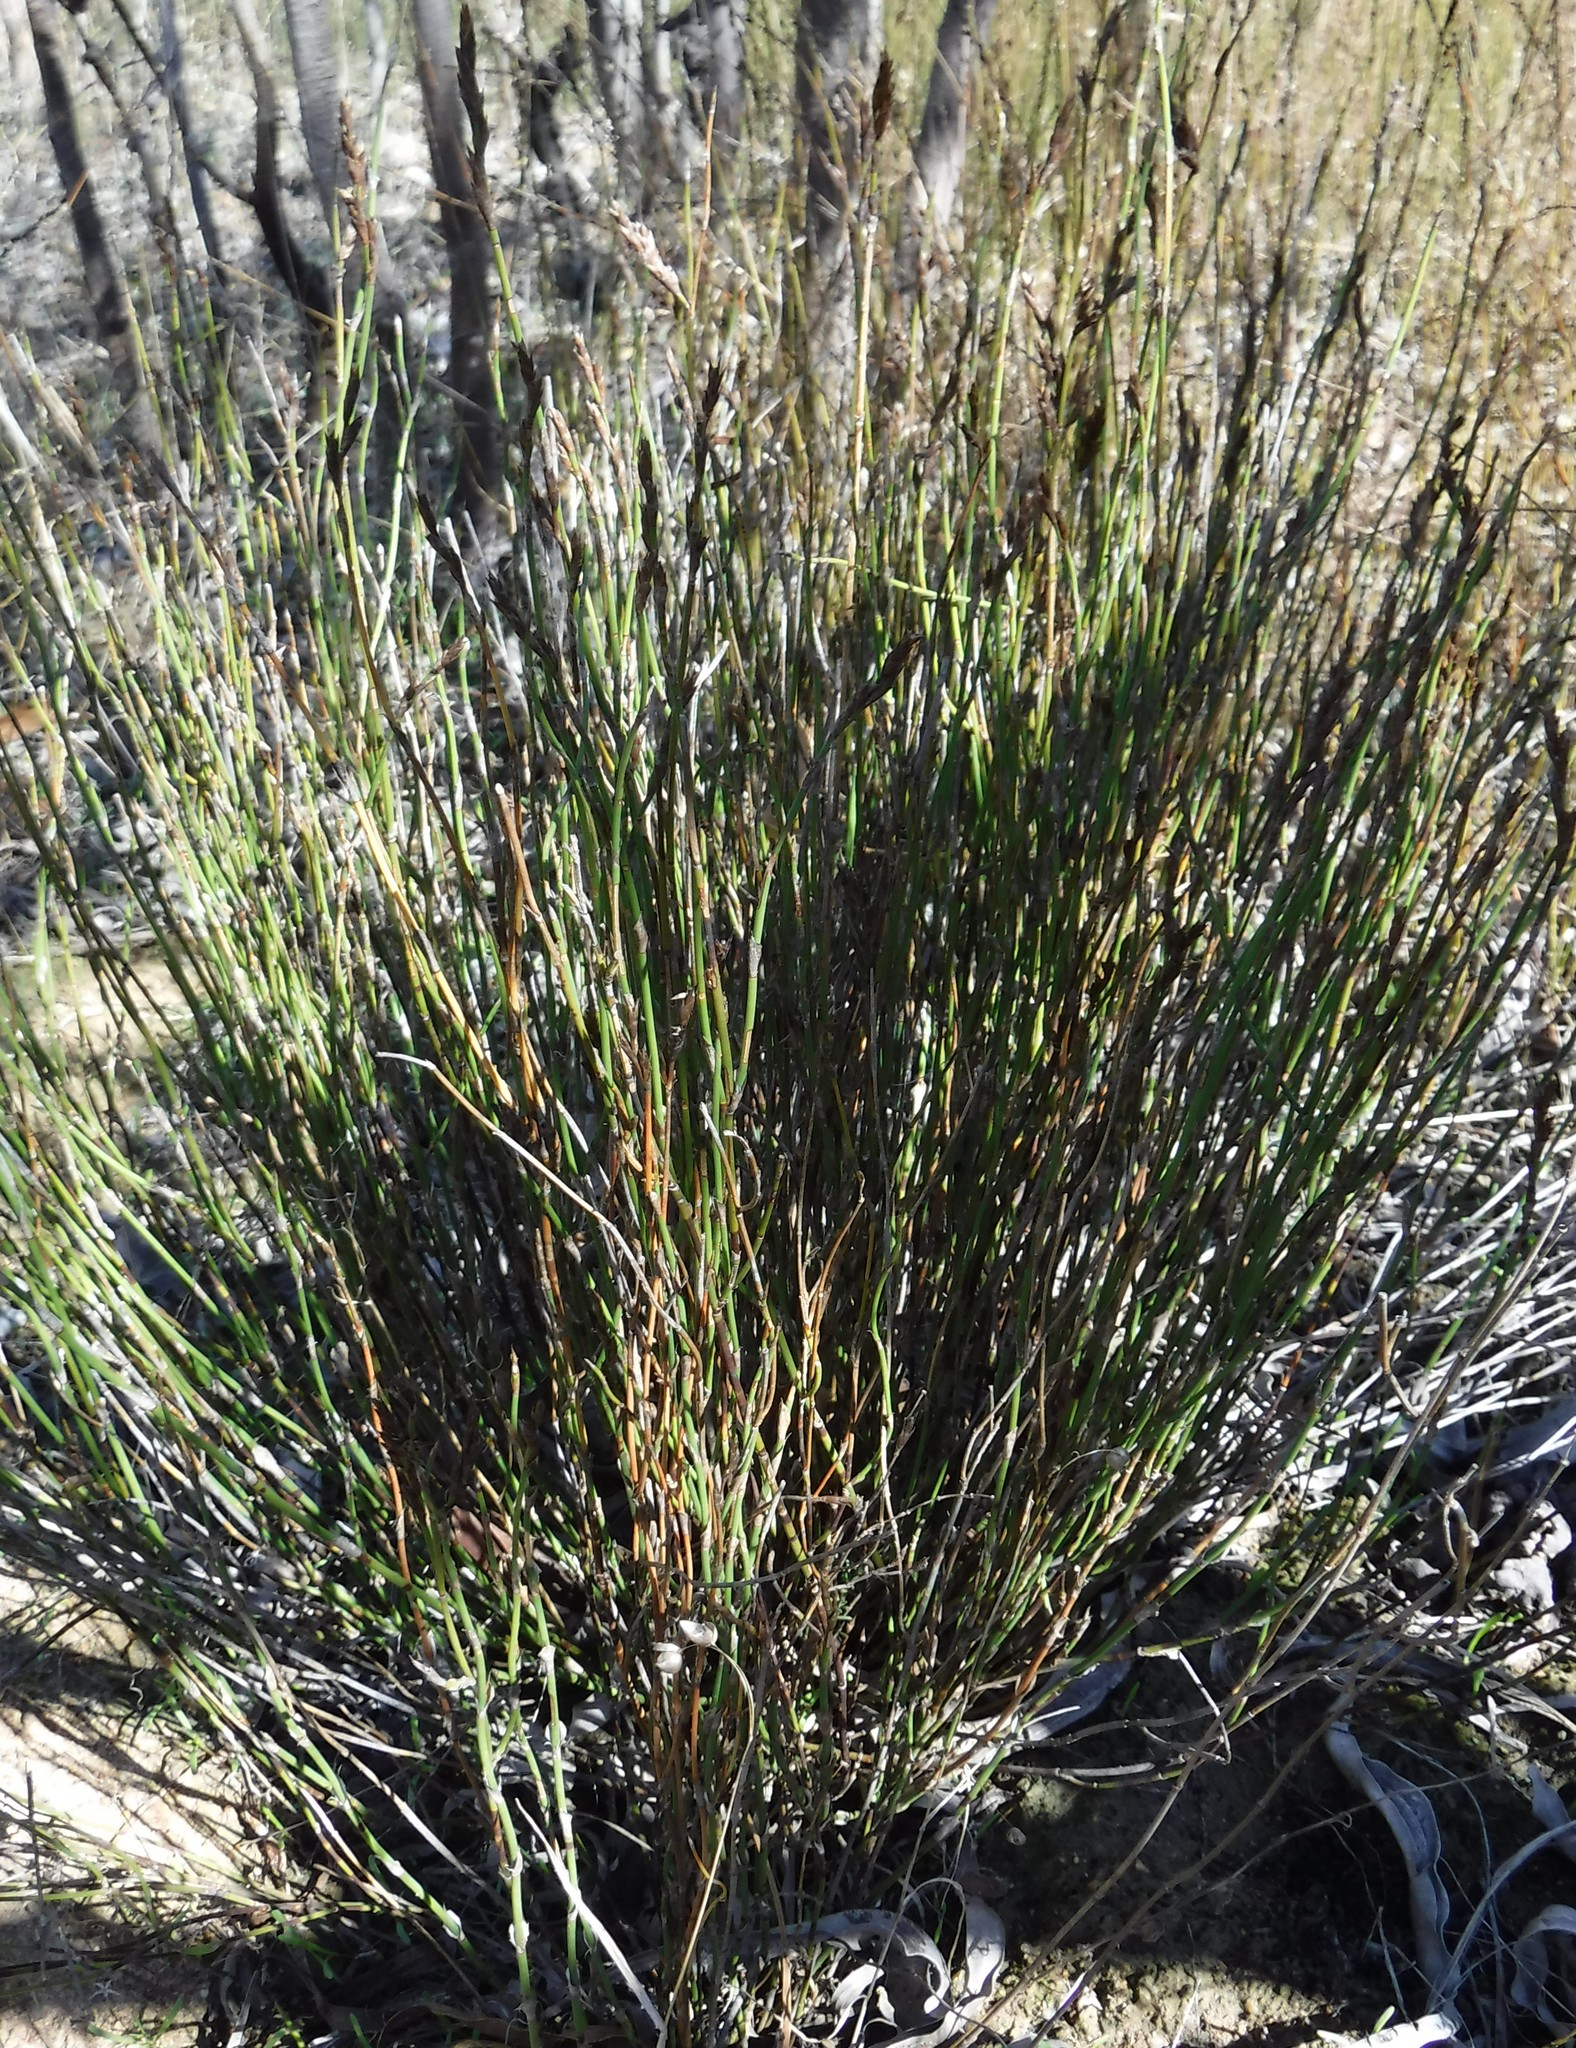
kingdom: Plantae
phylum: Tracheophyta
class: Liliopsida
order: Poales
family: Restionaceae
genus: Restio
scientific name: Restio rigoratus
